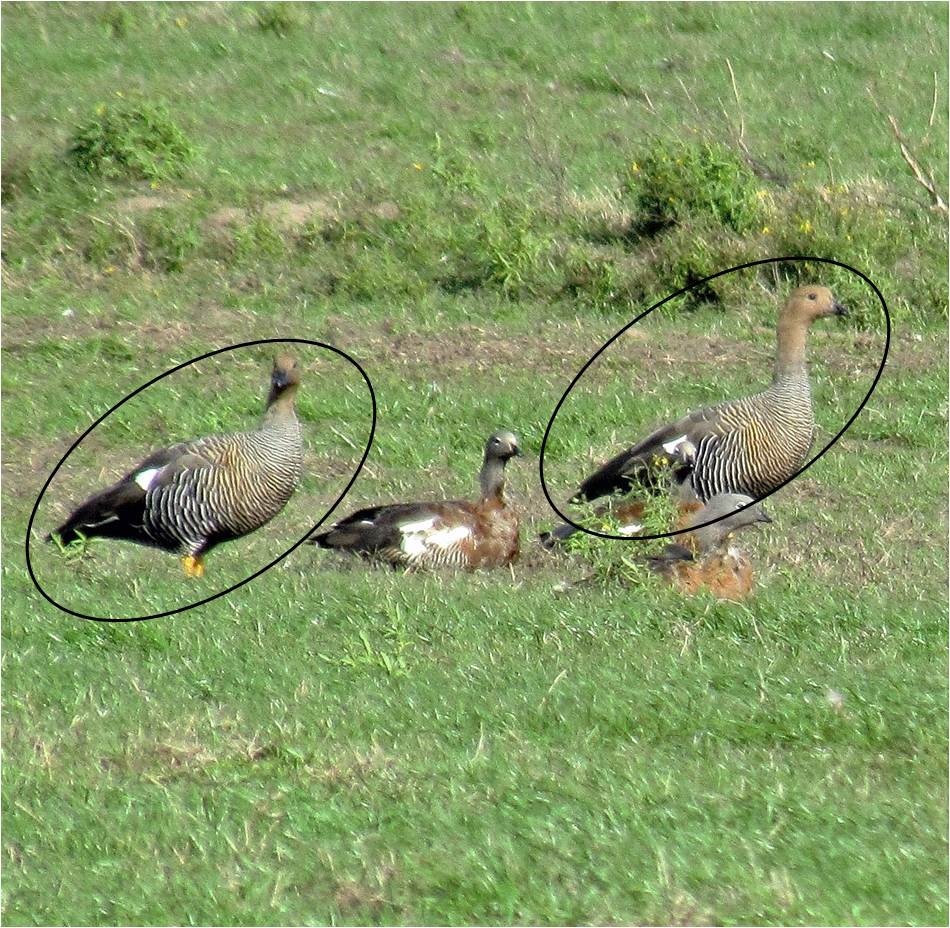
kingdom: Animalia
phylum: Chordata
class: Aves
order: Anseriformes
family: Anatidae
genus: Chloephaga
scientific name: Chloephaga picta
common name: Upland goose
